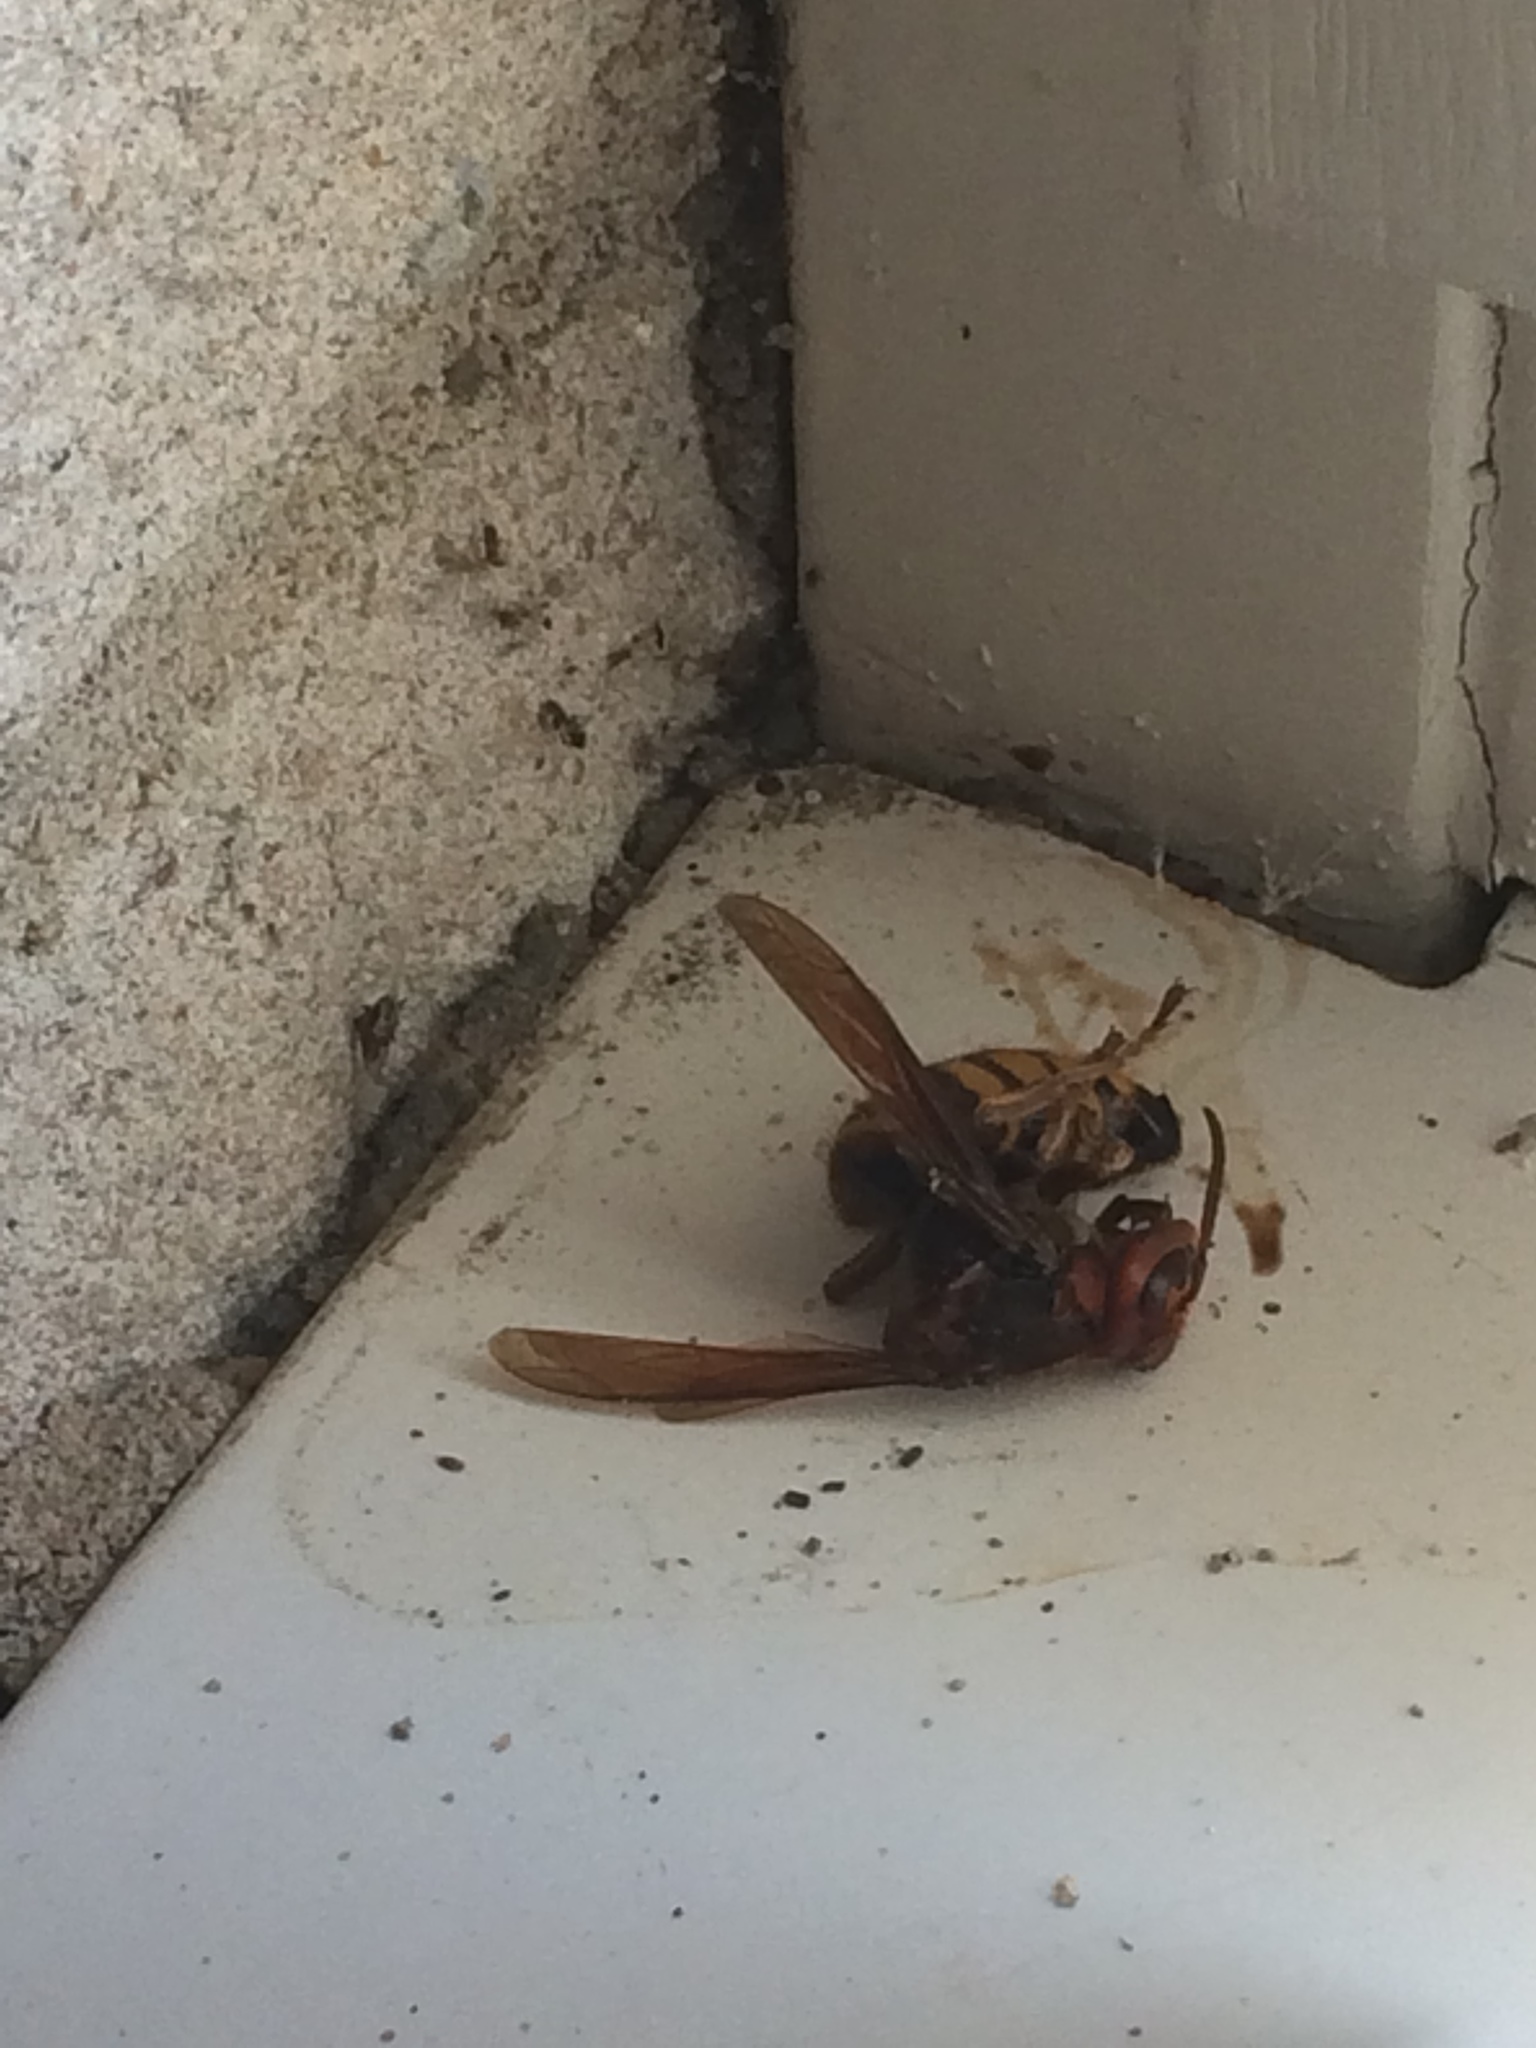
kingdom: Animalia
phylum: Arthropoda
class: Insecta
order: Hymenoptera
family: Vespidae
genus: Vespa
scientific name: Vespa crabro
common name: Hornet
